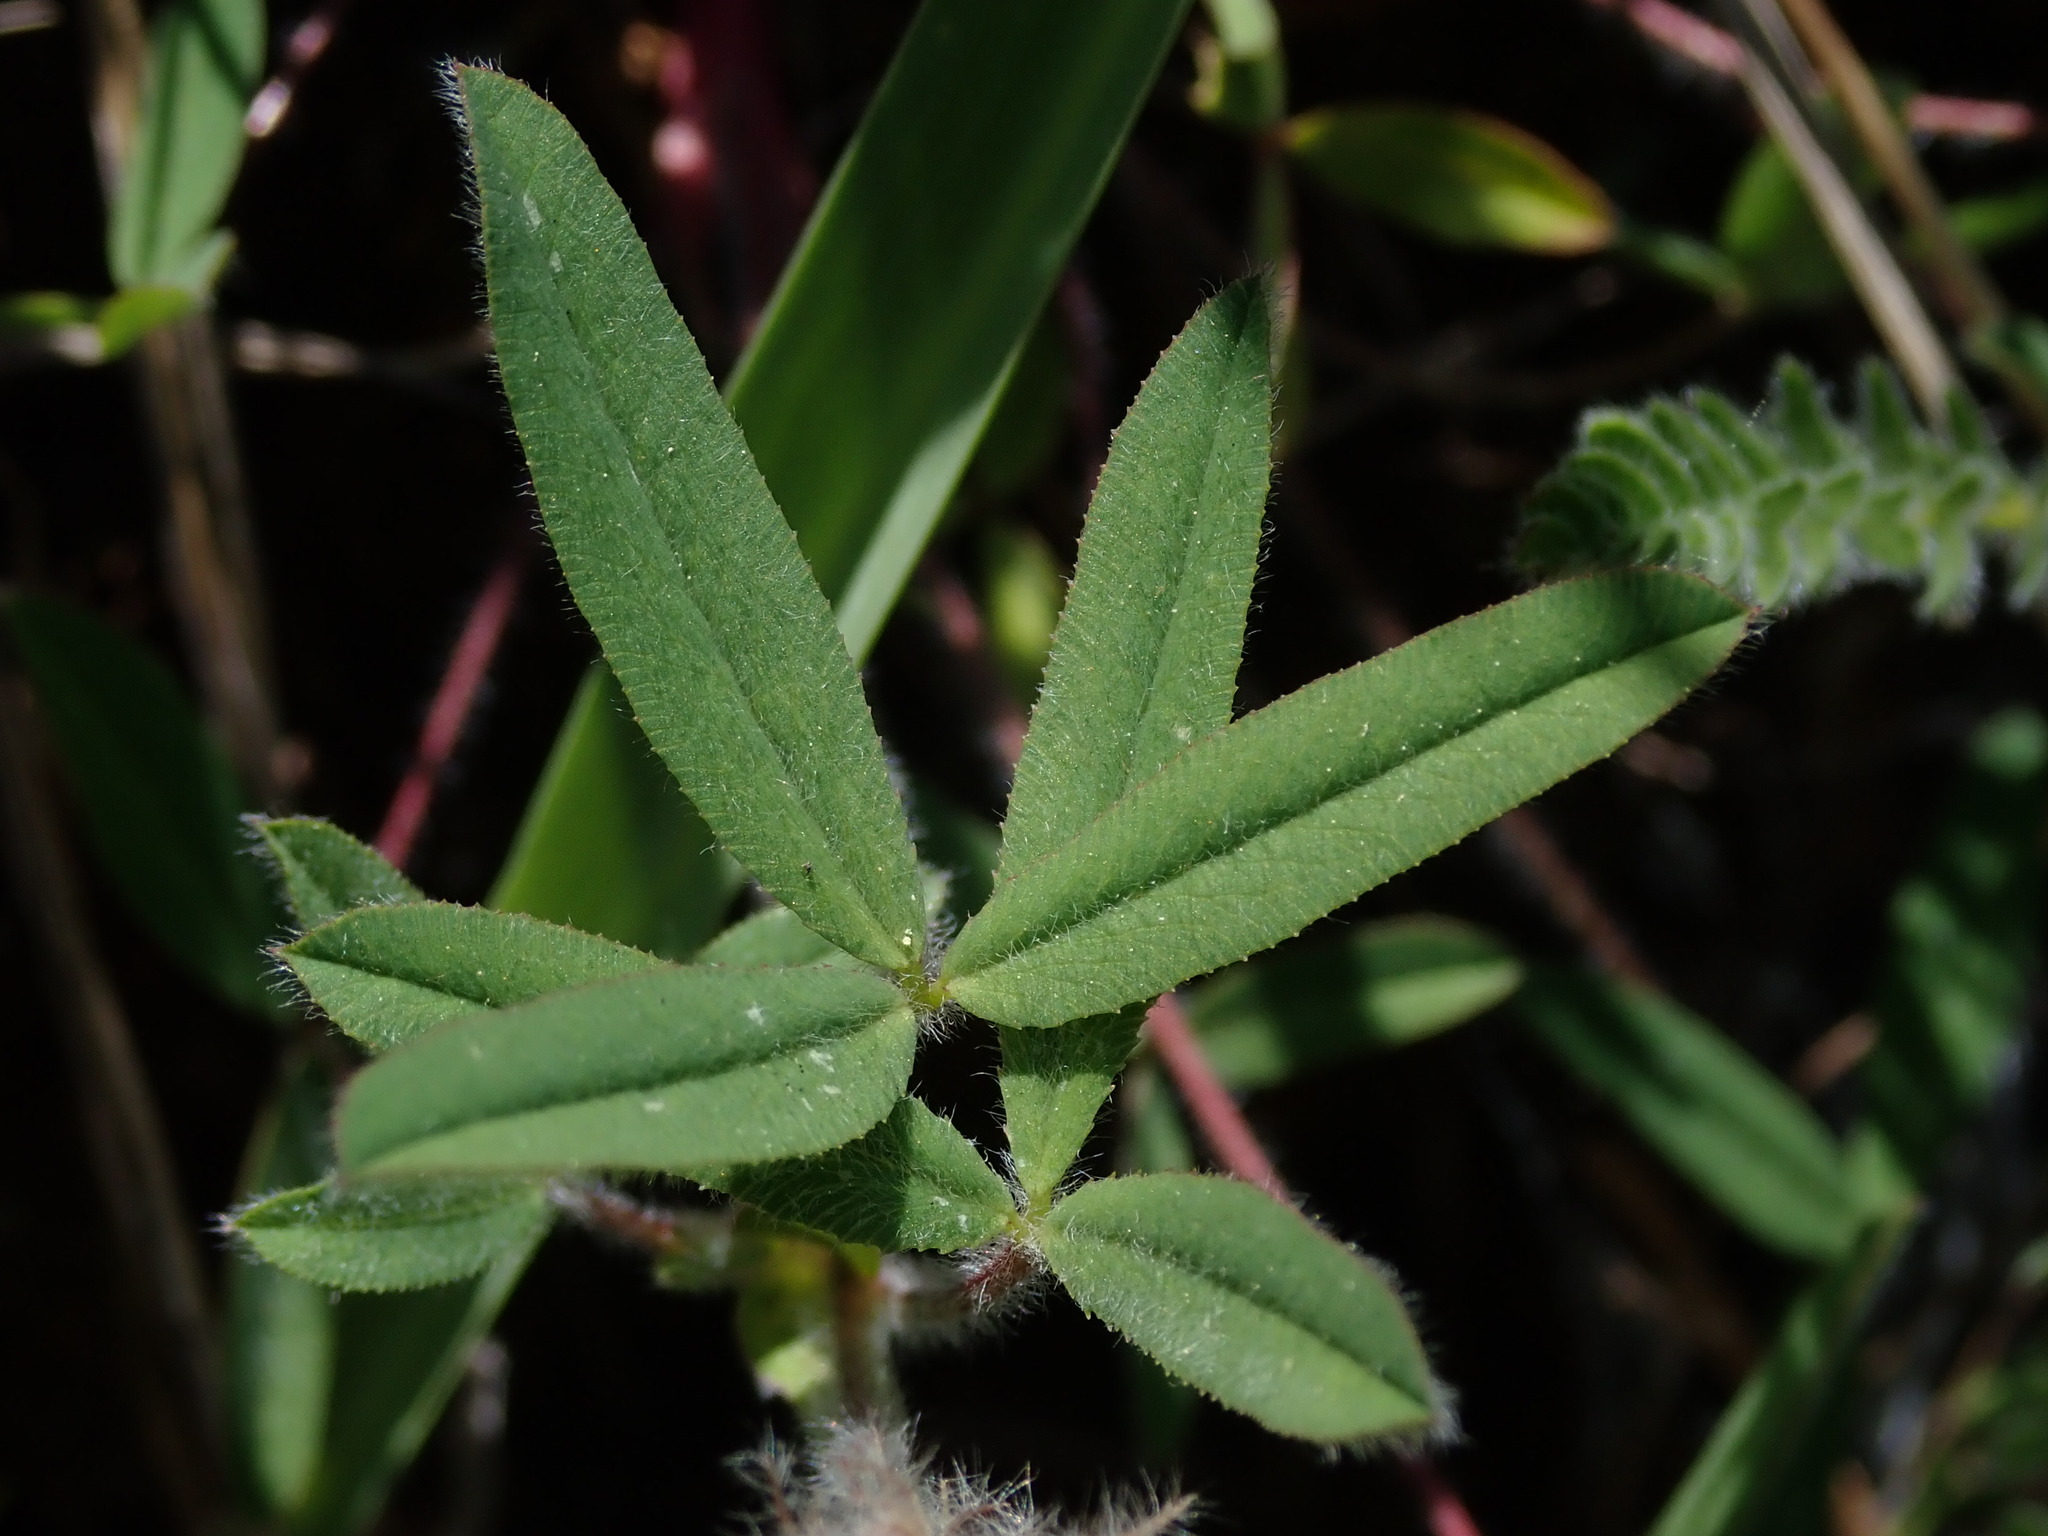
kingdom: Plantae
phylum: Tracheophyta
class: Magnoliopsida
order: Fabales
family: Fabaceae
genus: Trifolium
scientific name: Trifolium eriocephalum
